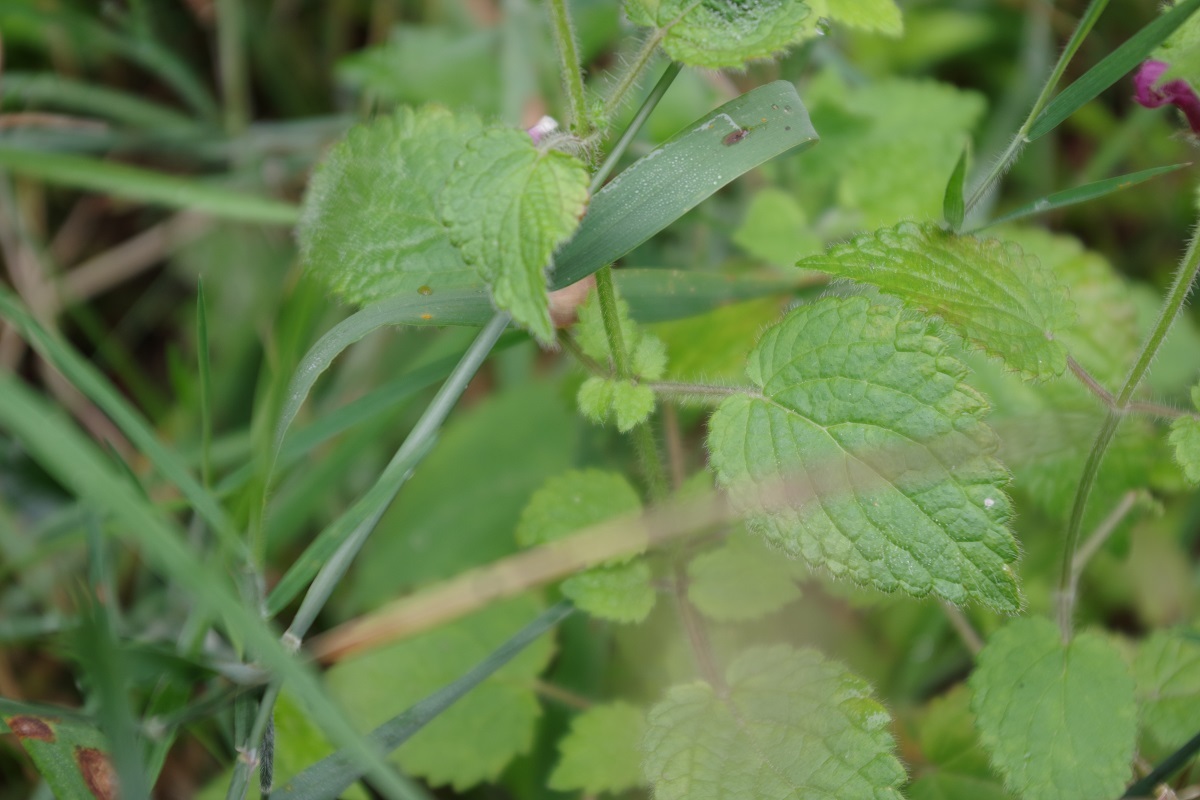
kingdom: Plantae
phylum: Tracheophyta
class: Magnoliopsida
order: Lamiales
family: Lamiaceae
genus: Stachys
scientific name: Stachys sylvatica
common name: Hedge woundwort
